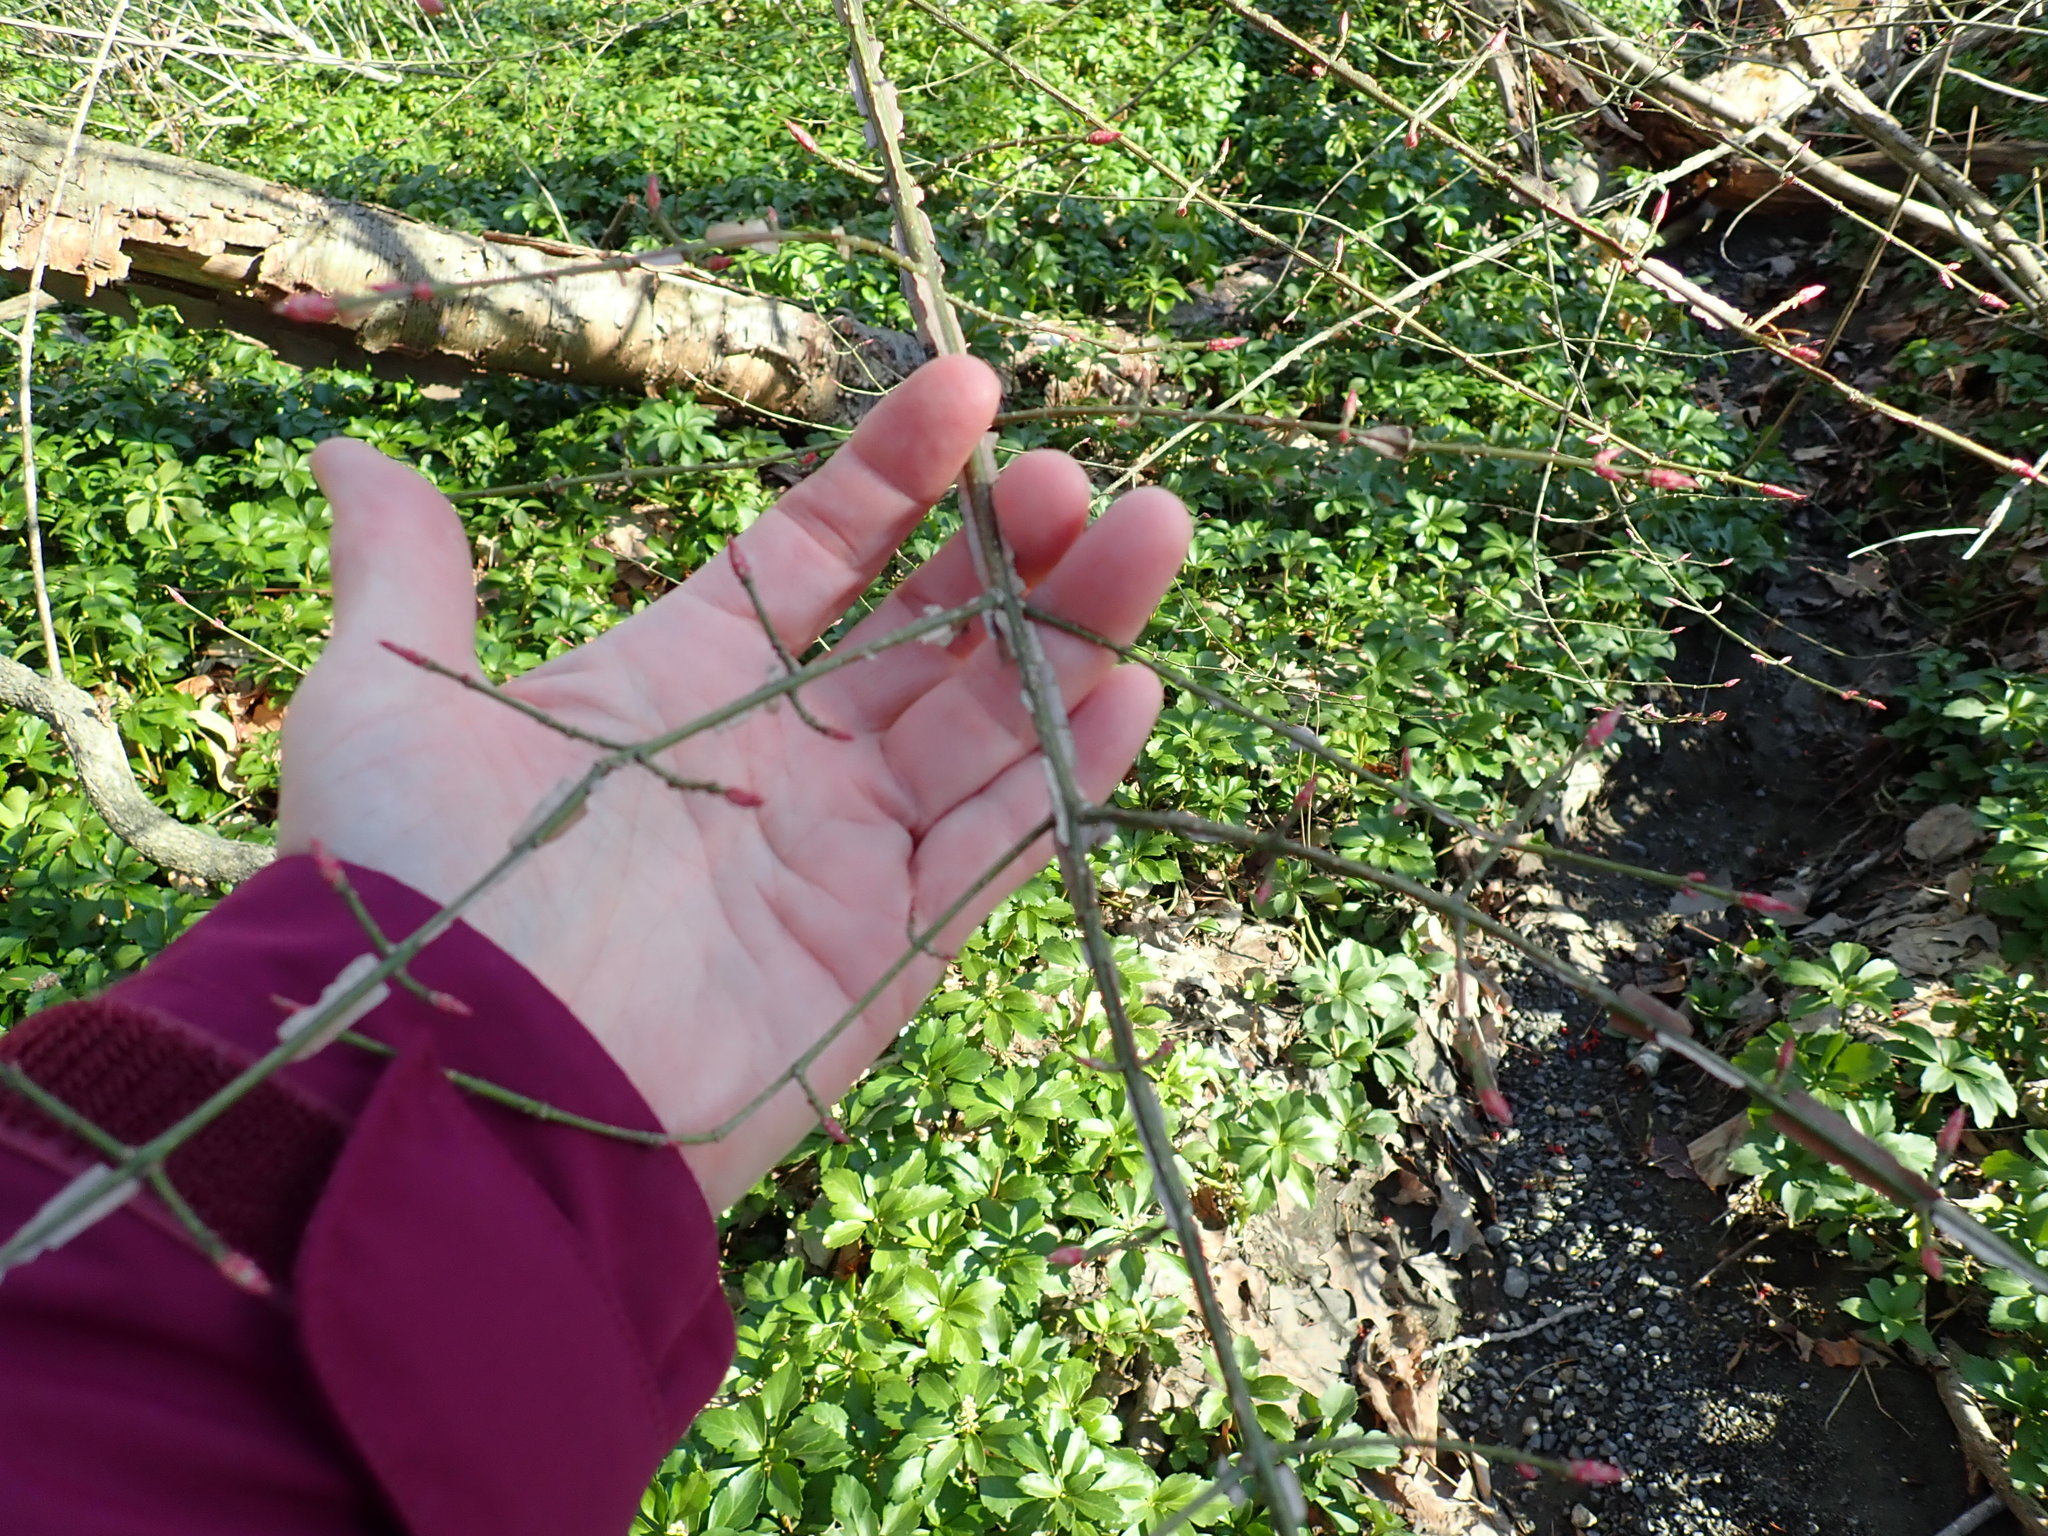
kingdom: Plantae
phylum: Tracheophyta
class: Magnoliopsida
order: Celastrales
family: Celastraceae
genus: Euonymus
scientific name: Euonymus alatus
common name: Winged euonymus
